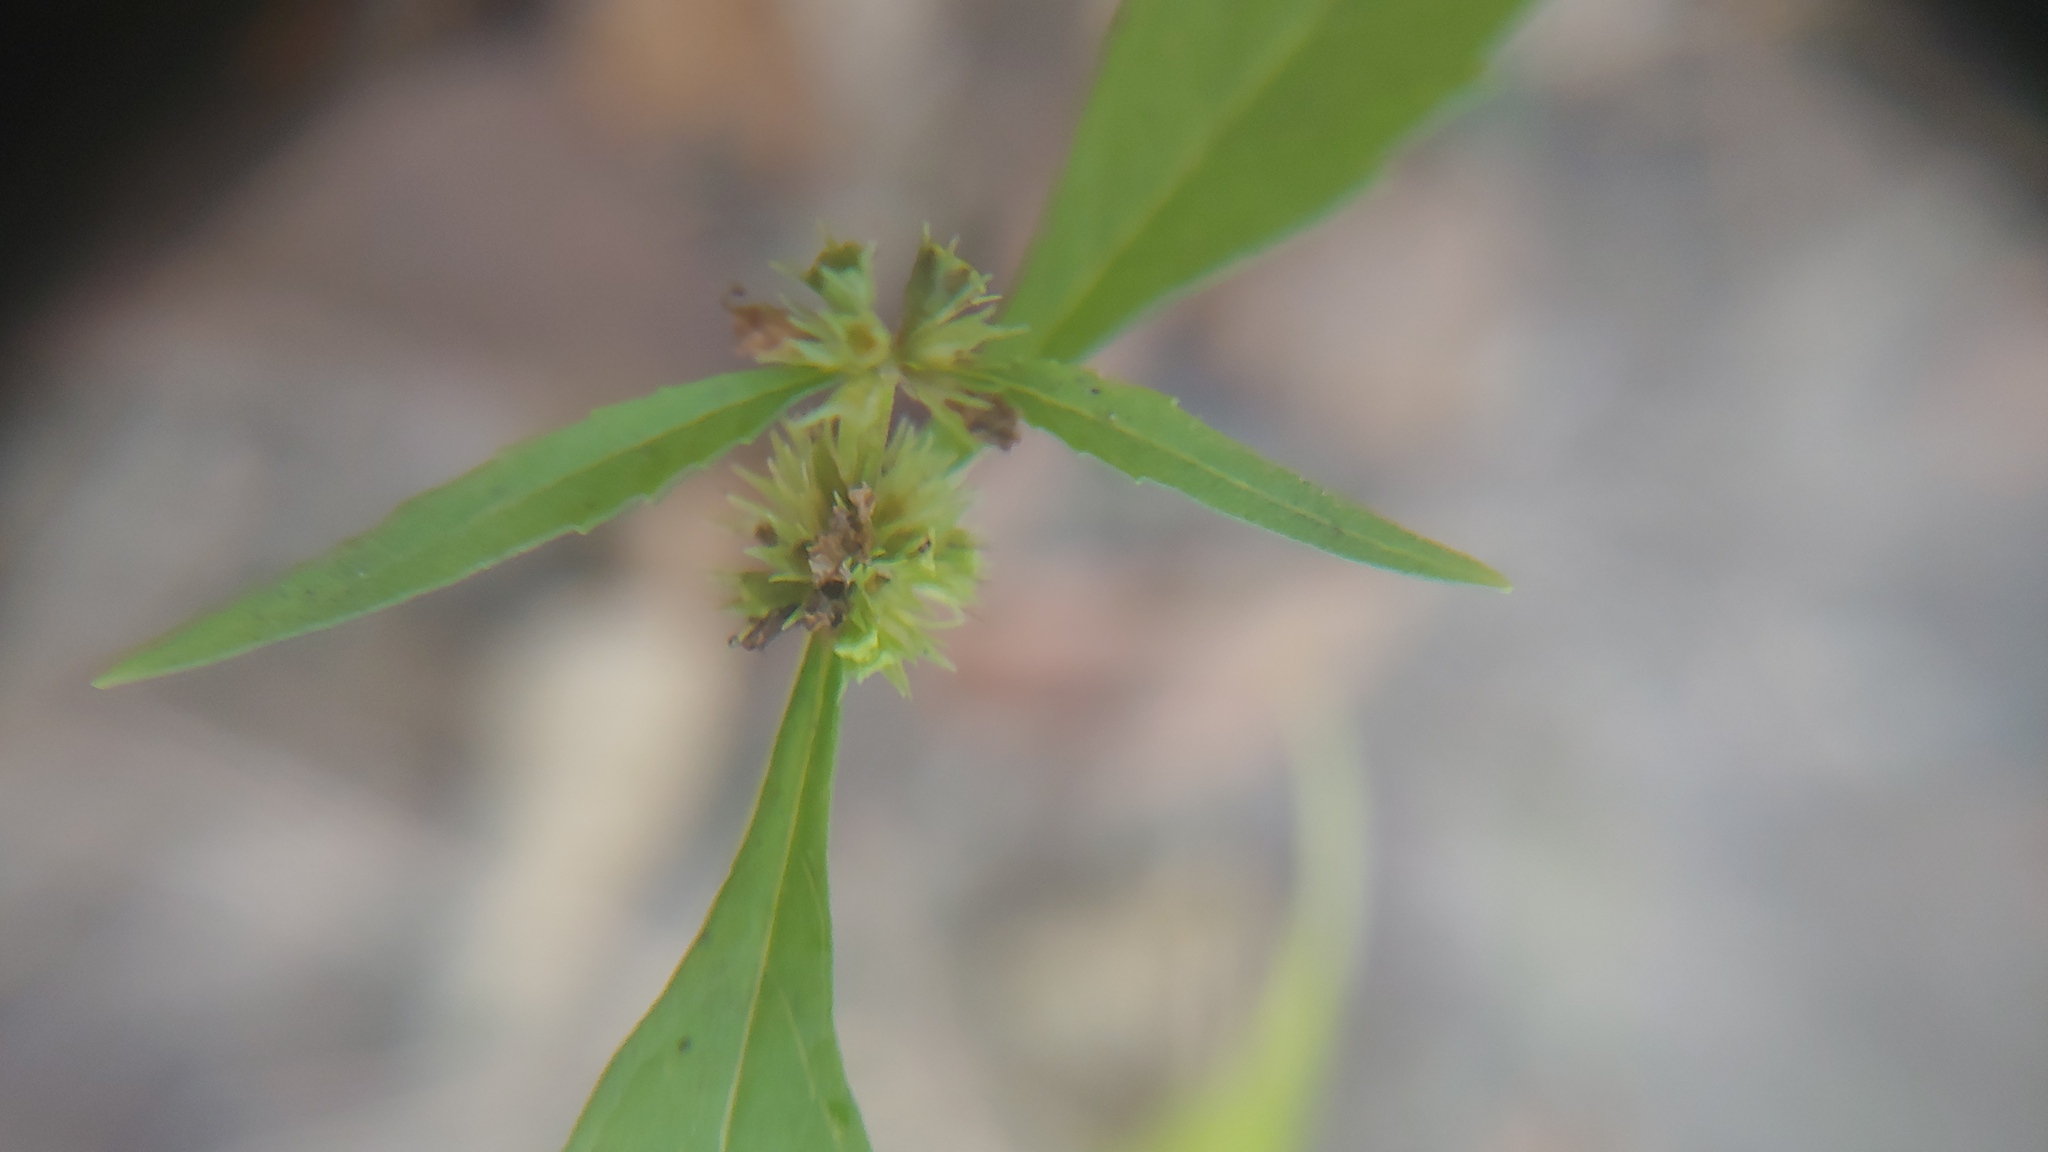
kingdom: Plantae
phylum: Tracheophyta
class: Magnoliopsida
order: Lamiales
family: Lamiaceae
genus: Lycopus
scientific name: Lycopus rubellus
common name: Stalked bugleweed
